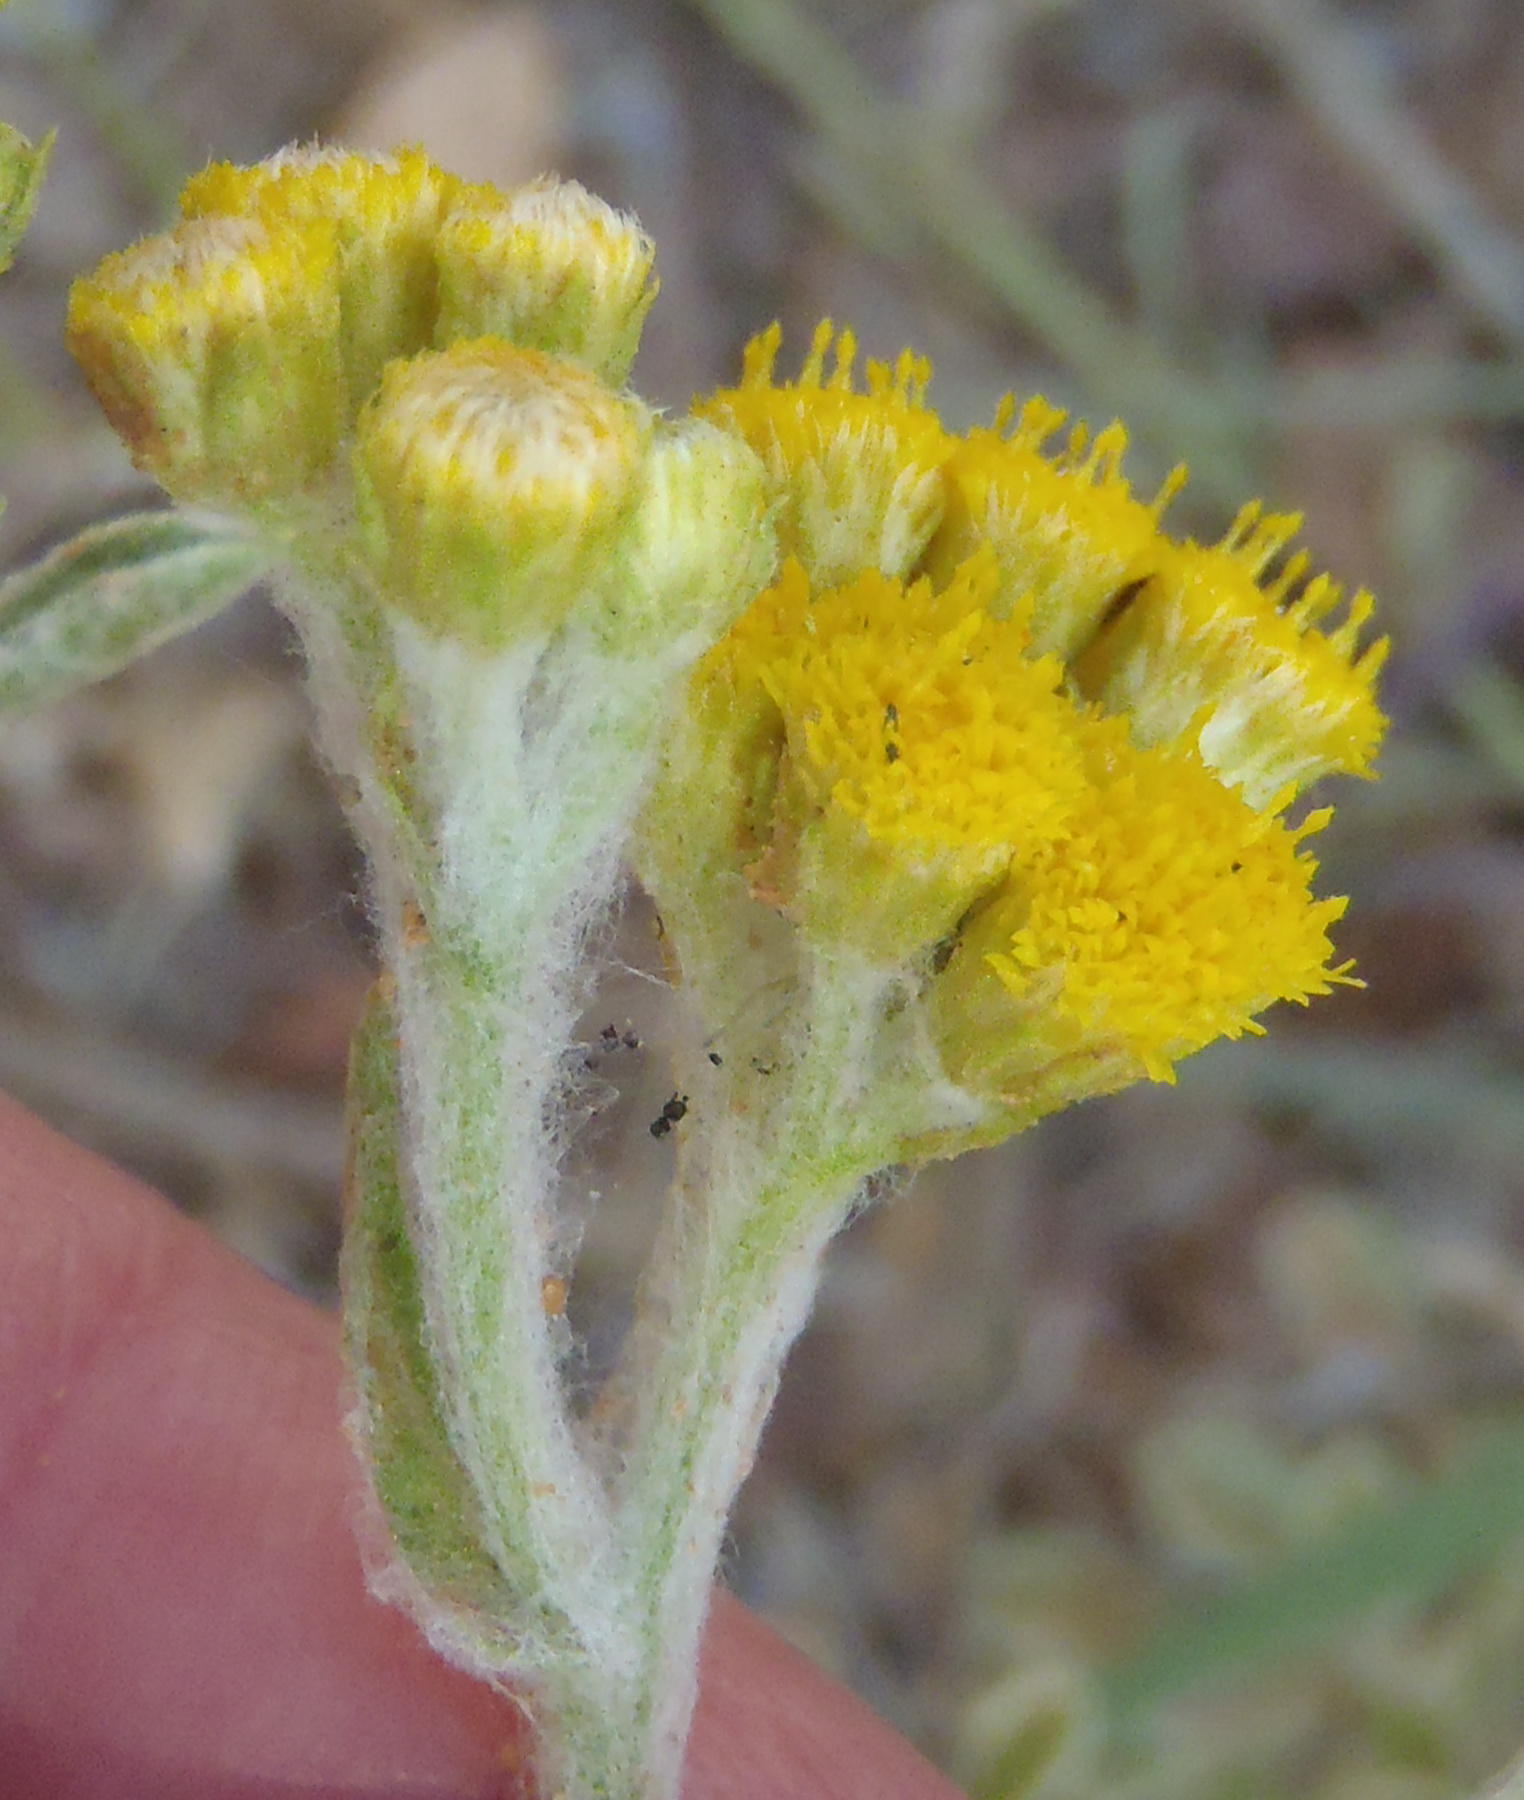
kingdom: Plantae
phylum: Tracheophyta
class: Magnoliopsida
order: Asterales
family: Asteraceae
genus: Nidorella
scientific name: Nidorella hottentotica
